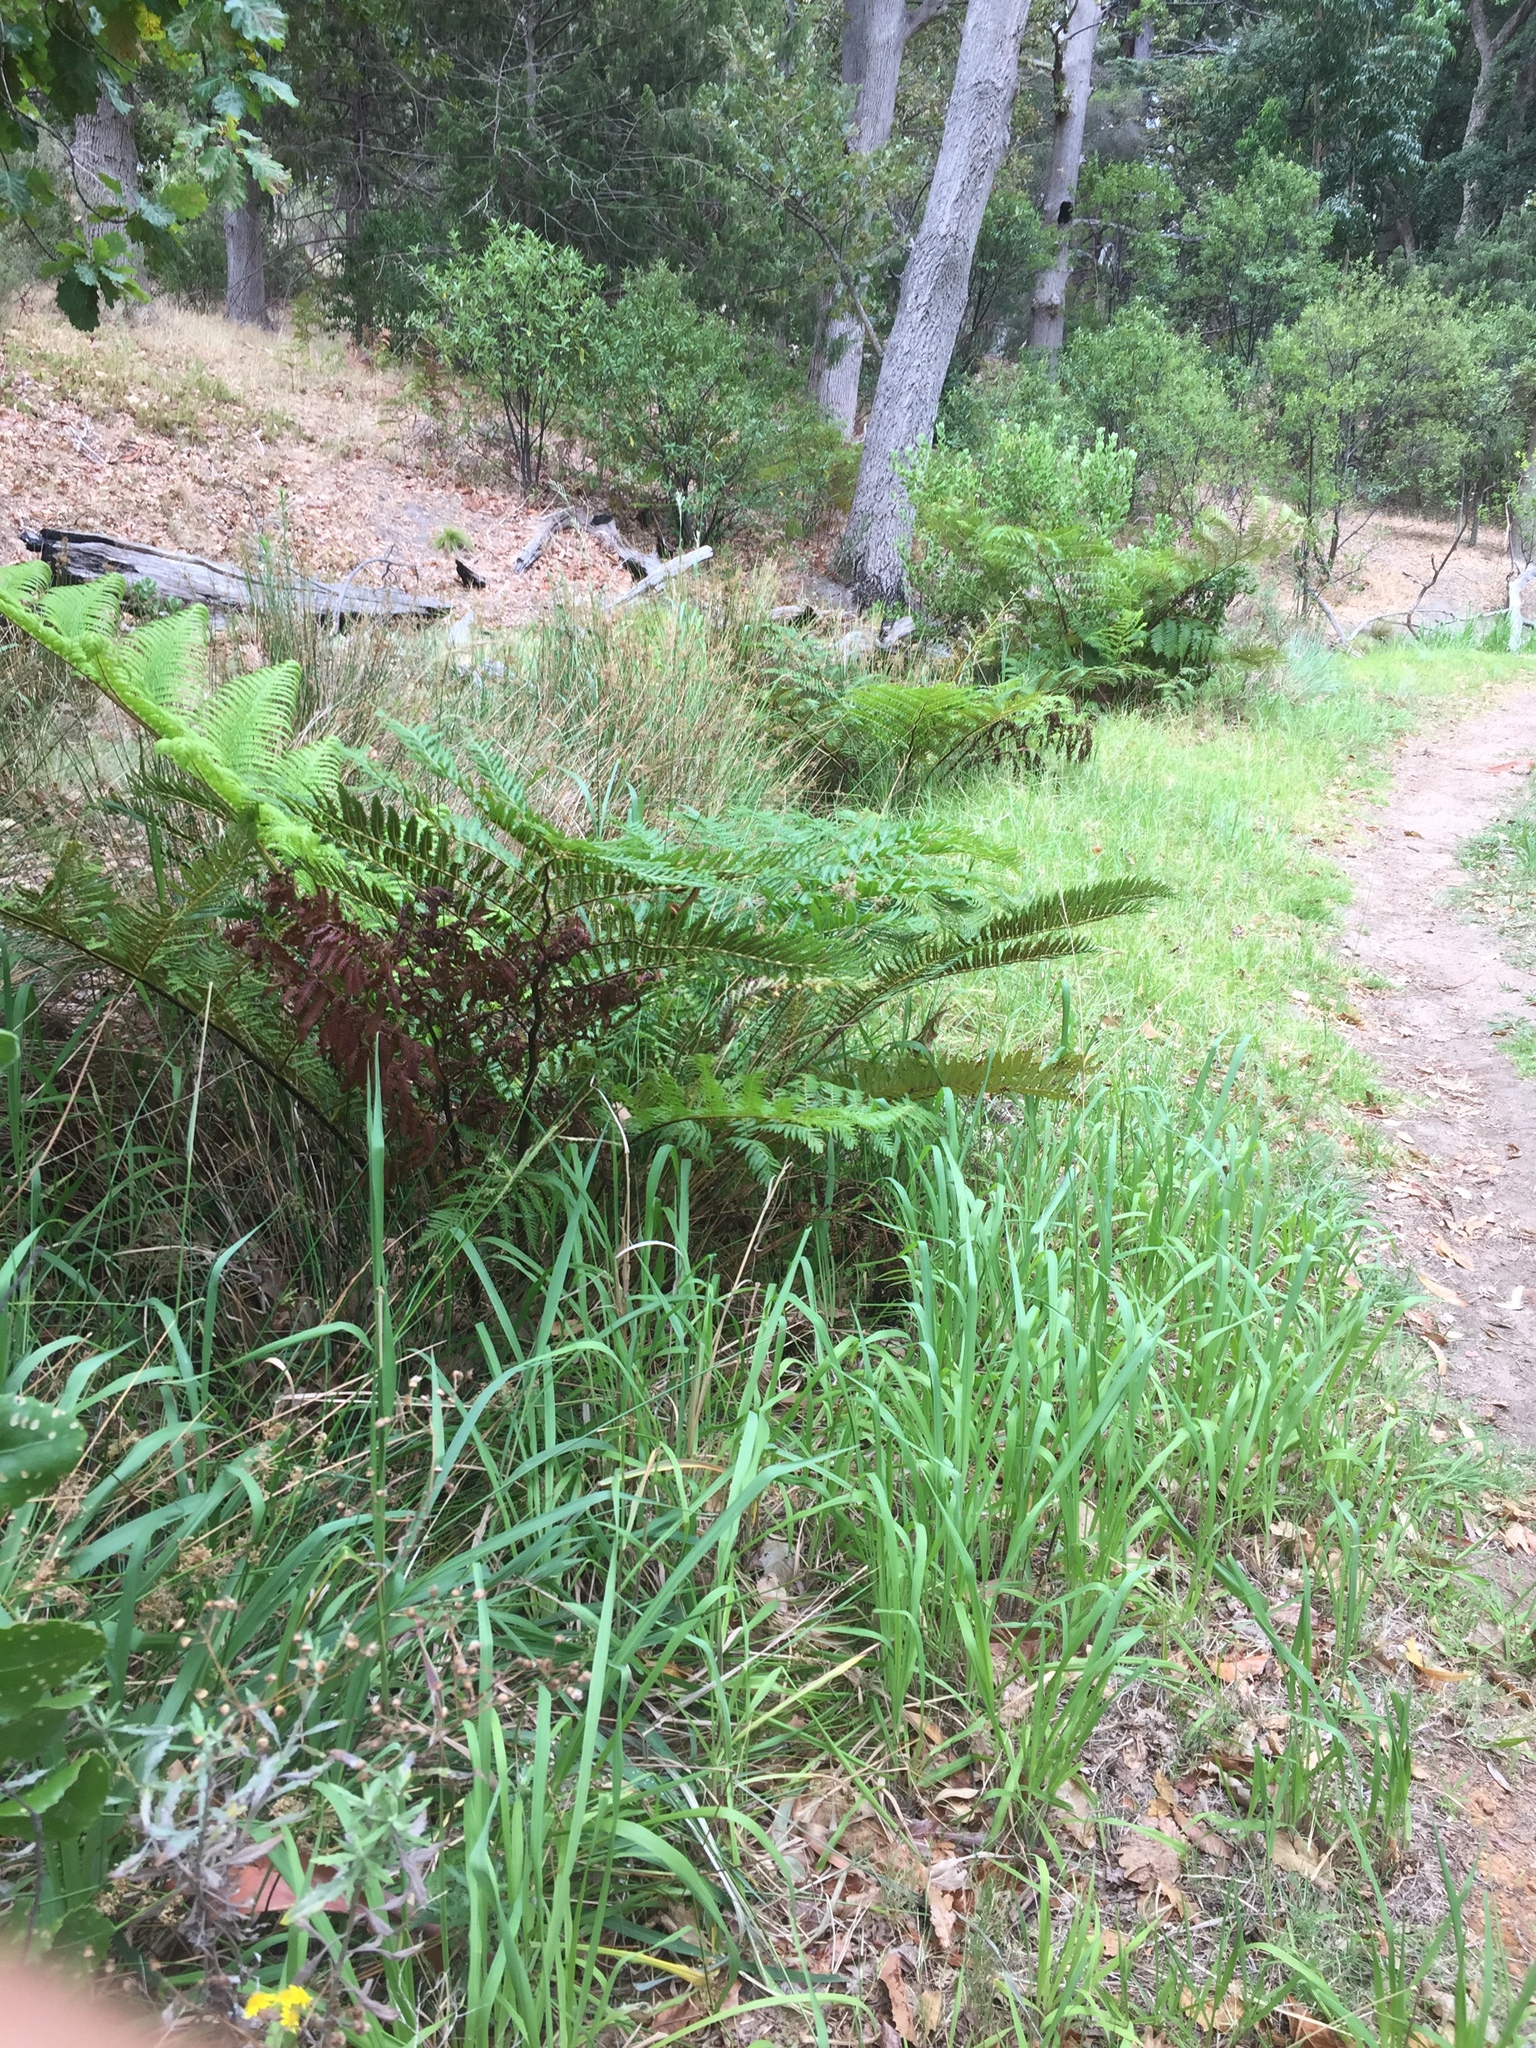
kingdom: Plantae
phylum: Tracheophyta
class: Polypodiopsida
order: Cyatheales
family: Cyatheaceae
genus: Sphaeropteris
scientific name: Sphaeropteris cooperi
